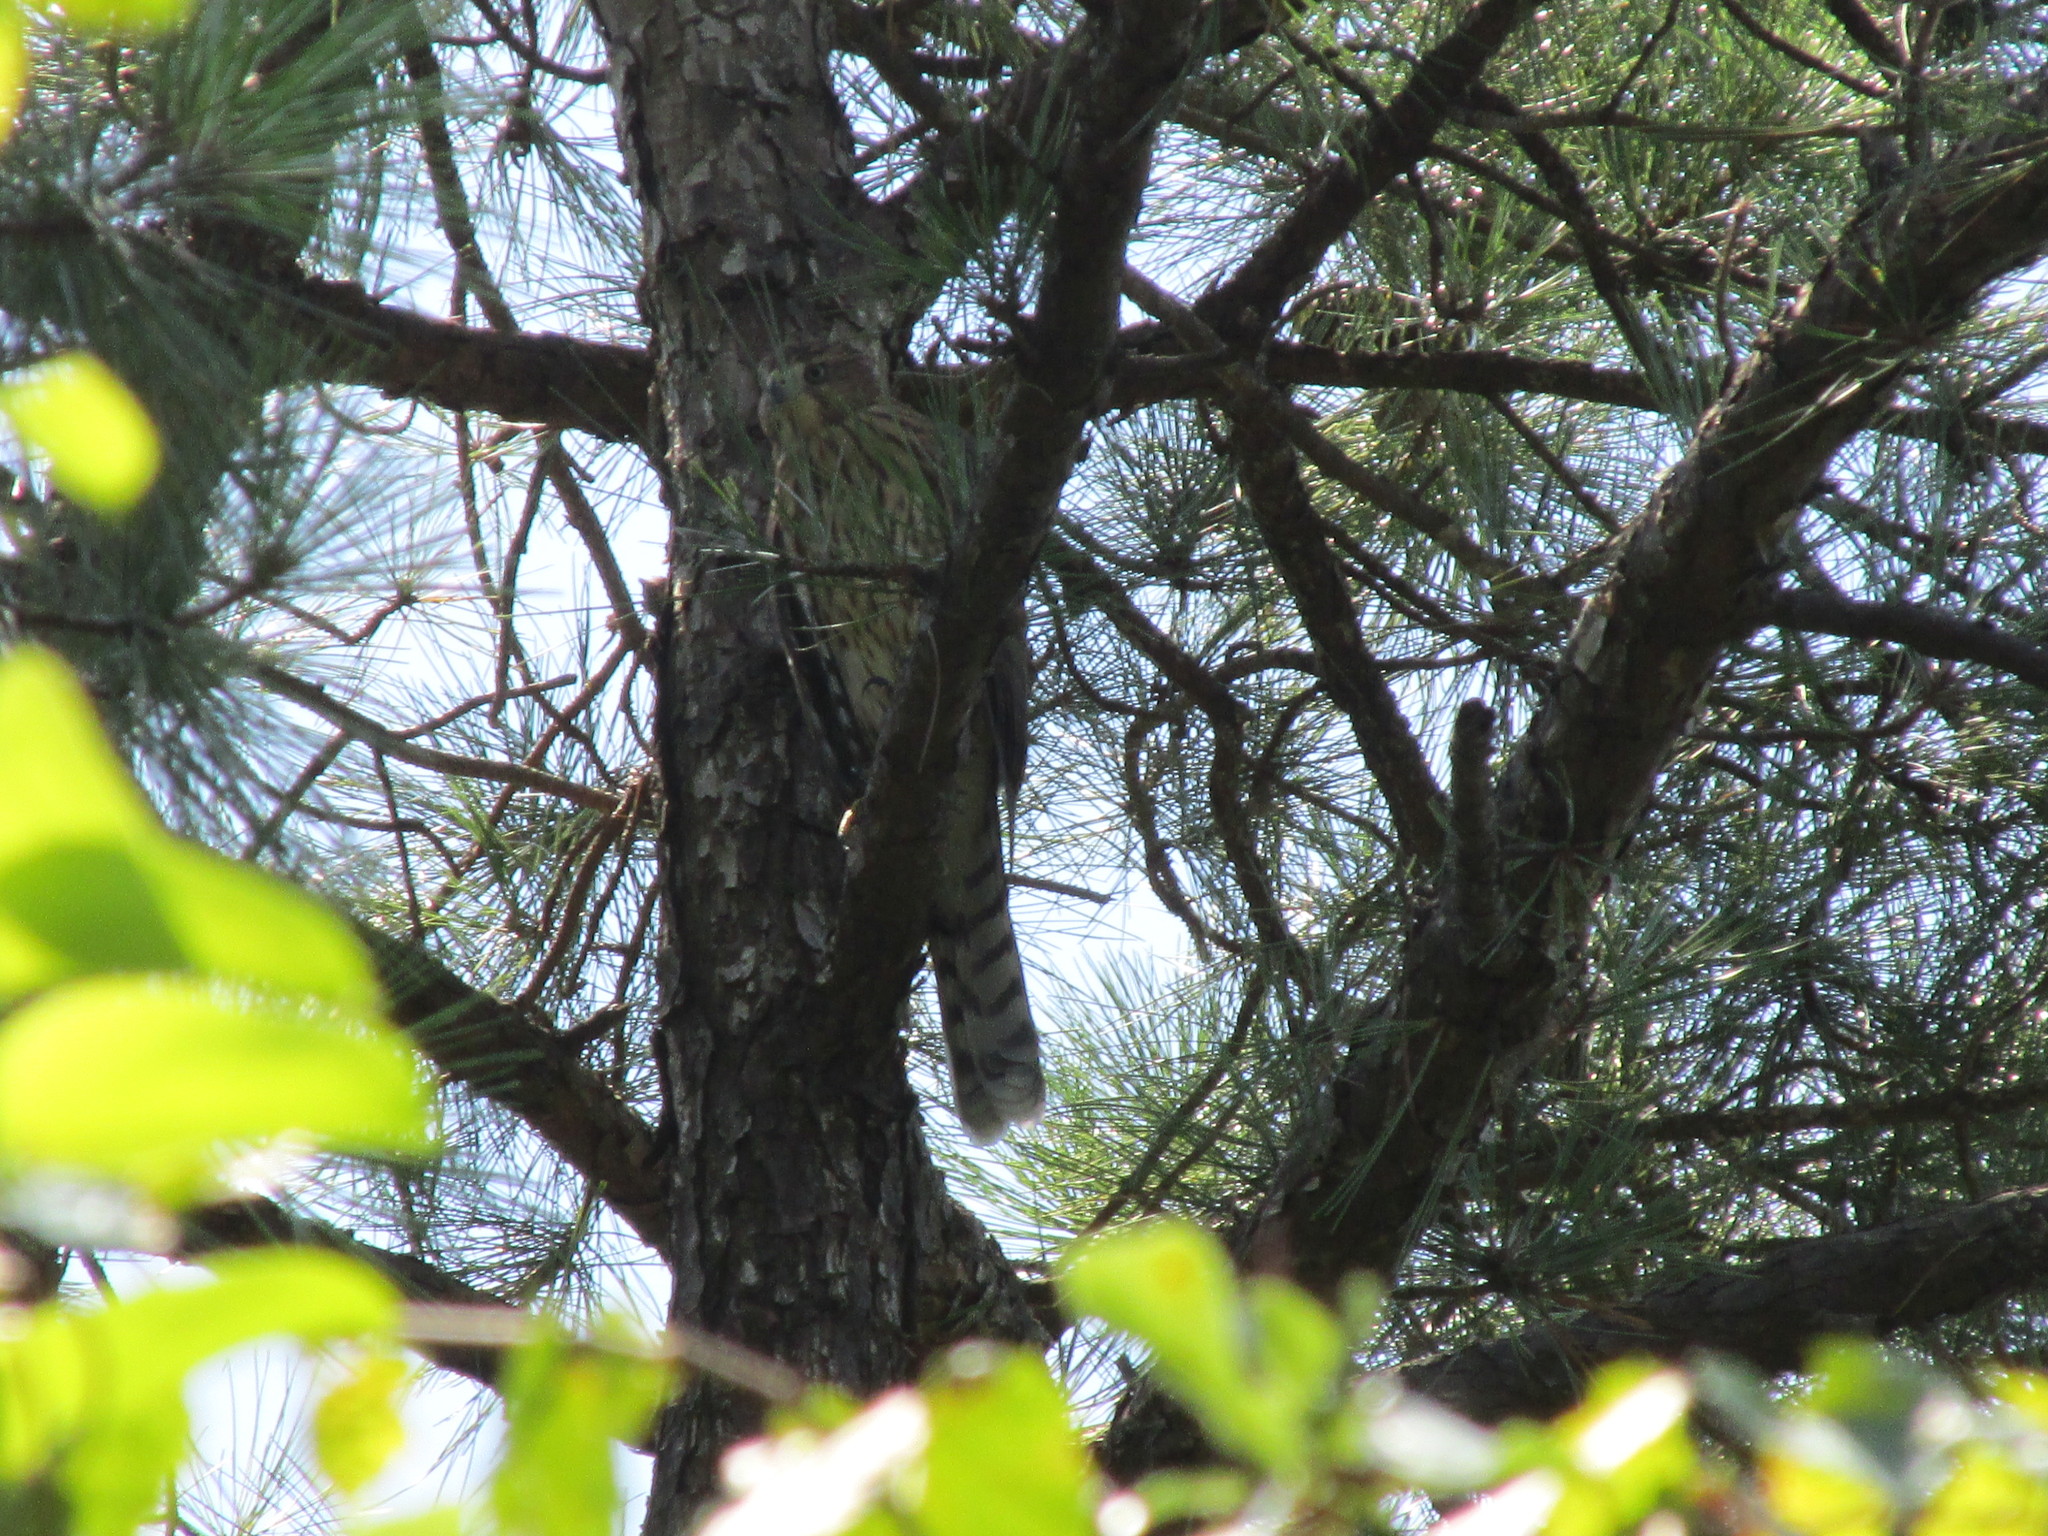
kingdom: Animalia
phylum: Chordata
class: Aves
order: Accipitriformes
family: Accipitridae
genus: Accipiter
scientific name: Accipiter cooperii
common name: Cooper's hawk
